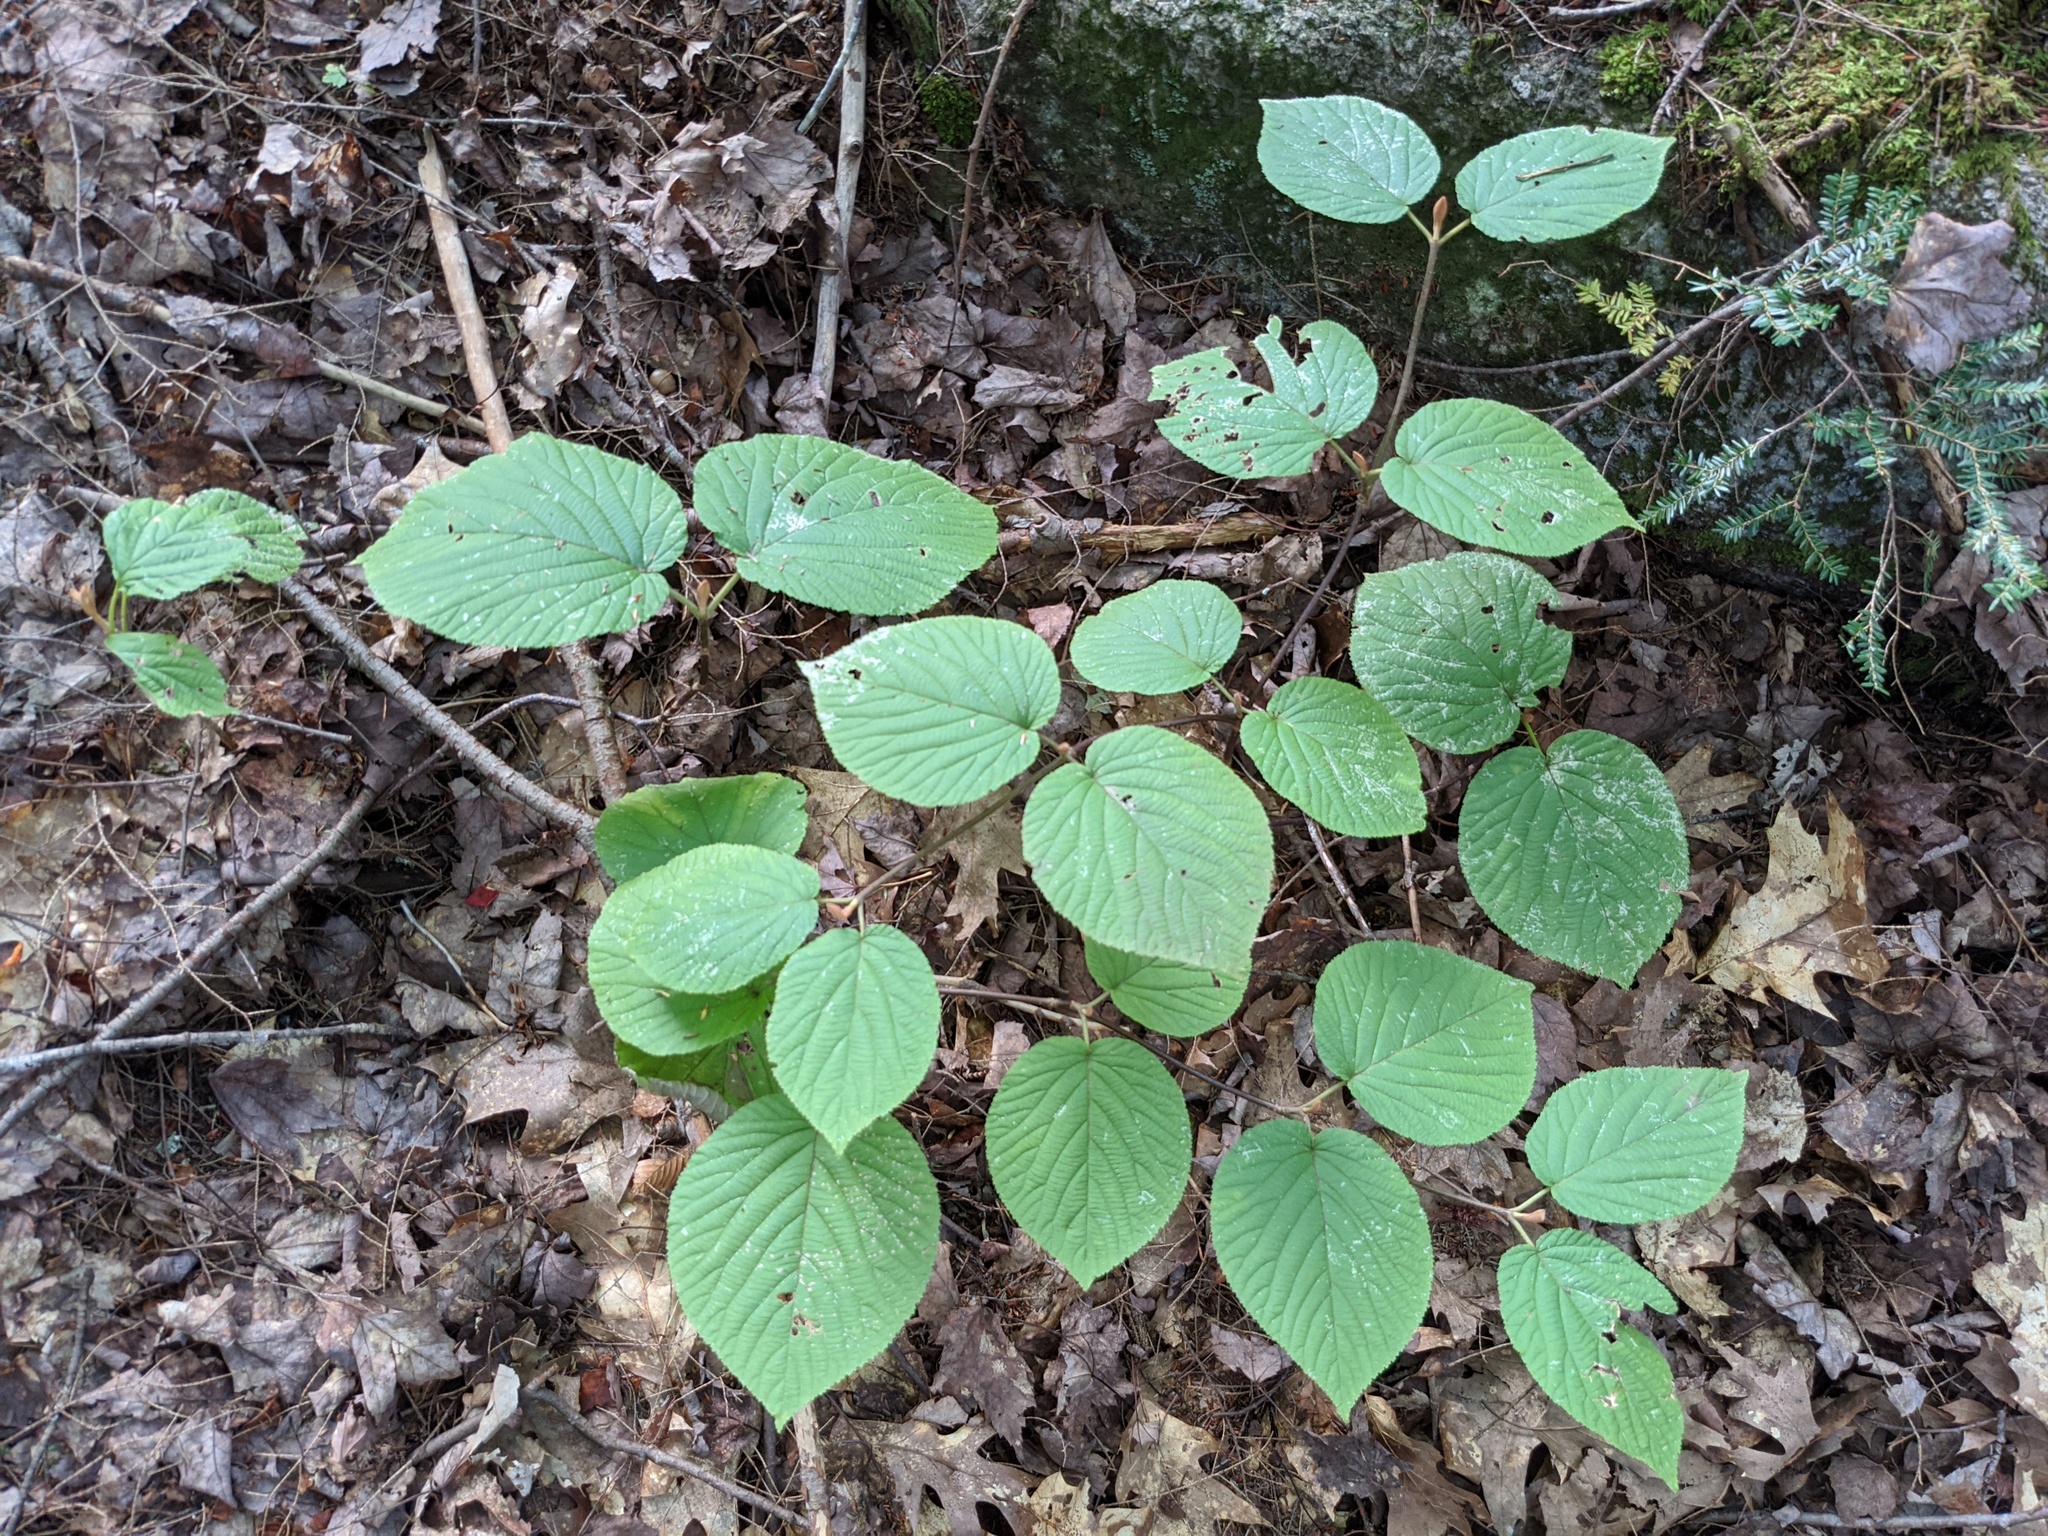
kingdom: Plantae
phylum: Tracheophyta
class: Magnoliopsida
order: Dipsacales
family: Viburnaceae
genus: Viburnum
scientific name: Viburnum lantanoides
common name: Hobblebush
